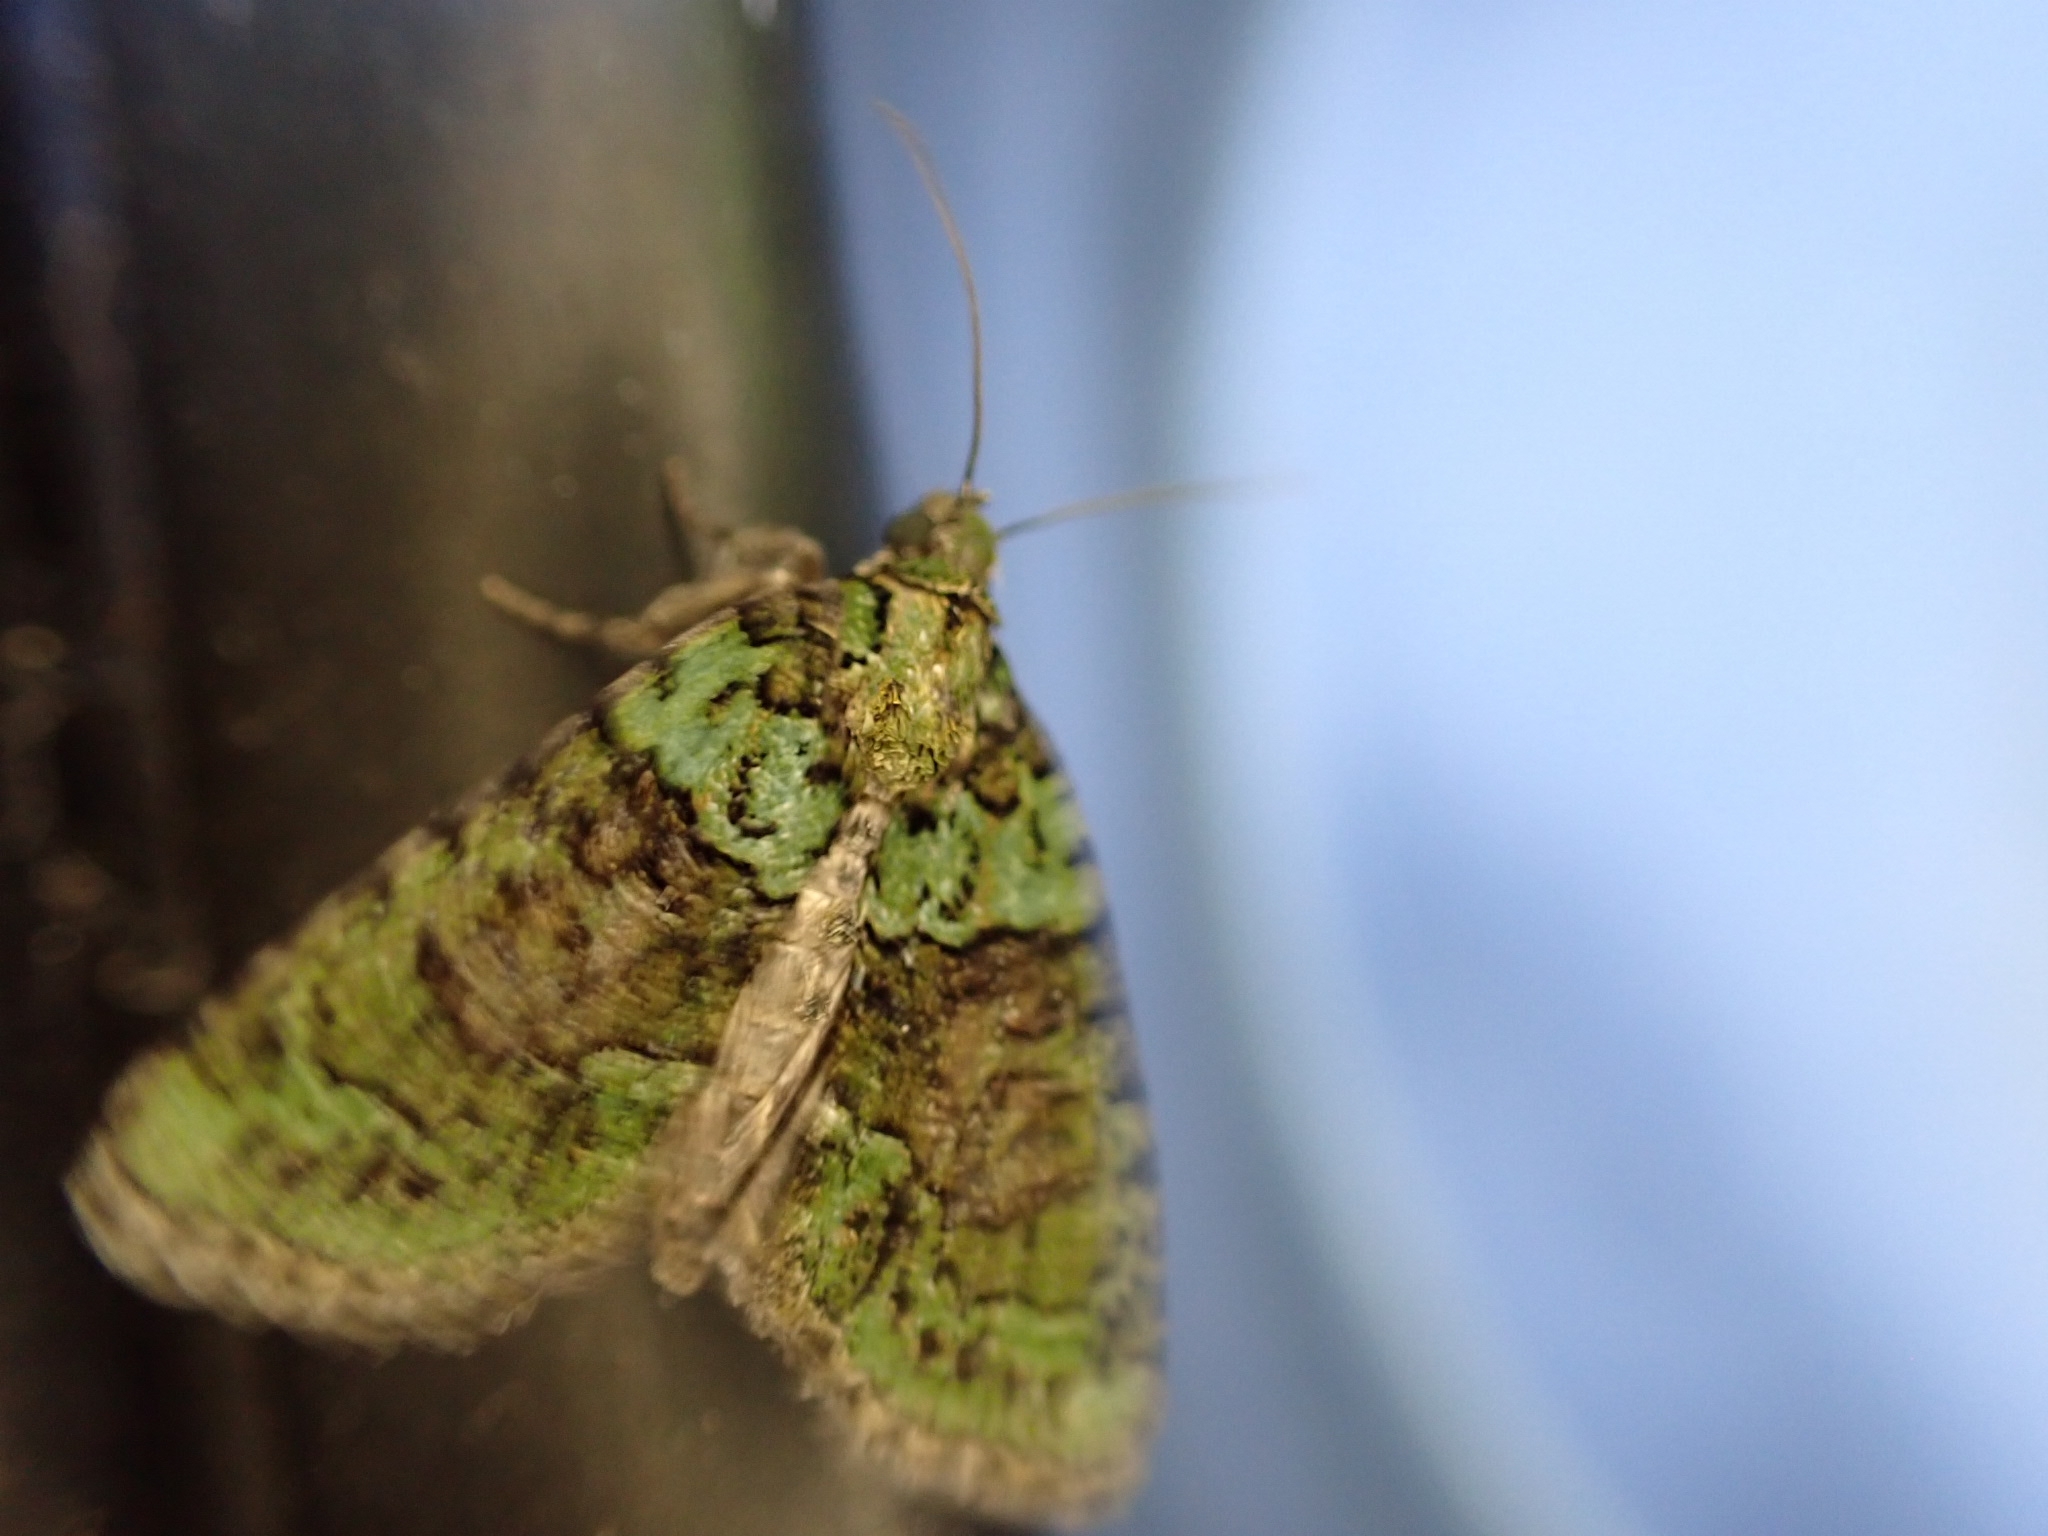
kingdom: Animalia
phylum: Arthropoda
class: Insecta
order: Lepidoptera
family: Geometridae
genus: Hydriomena
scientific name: Hydriomena furcata
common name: July highflyer
